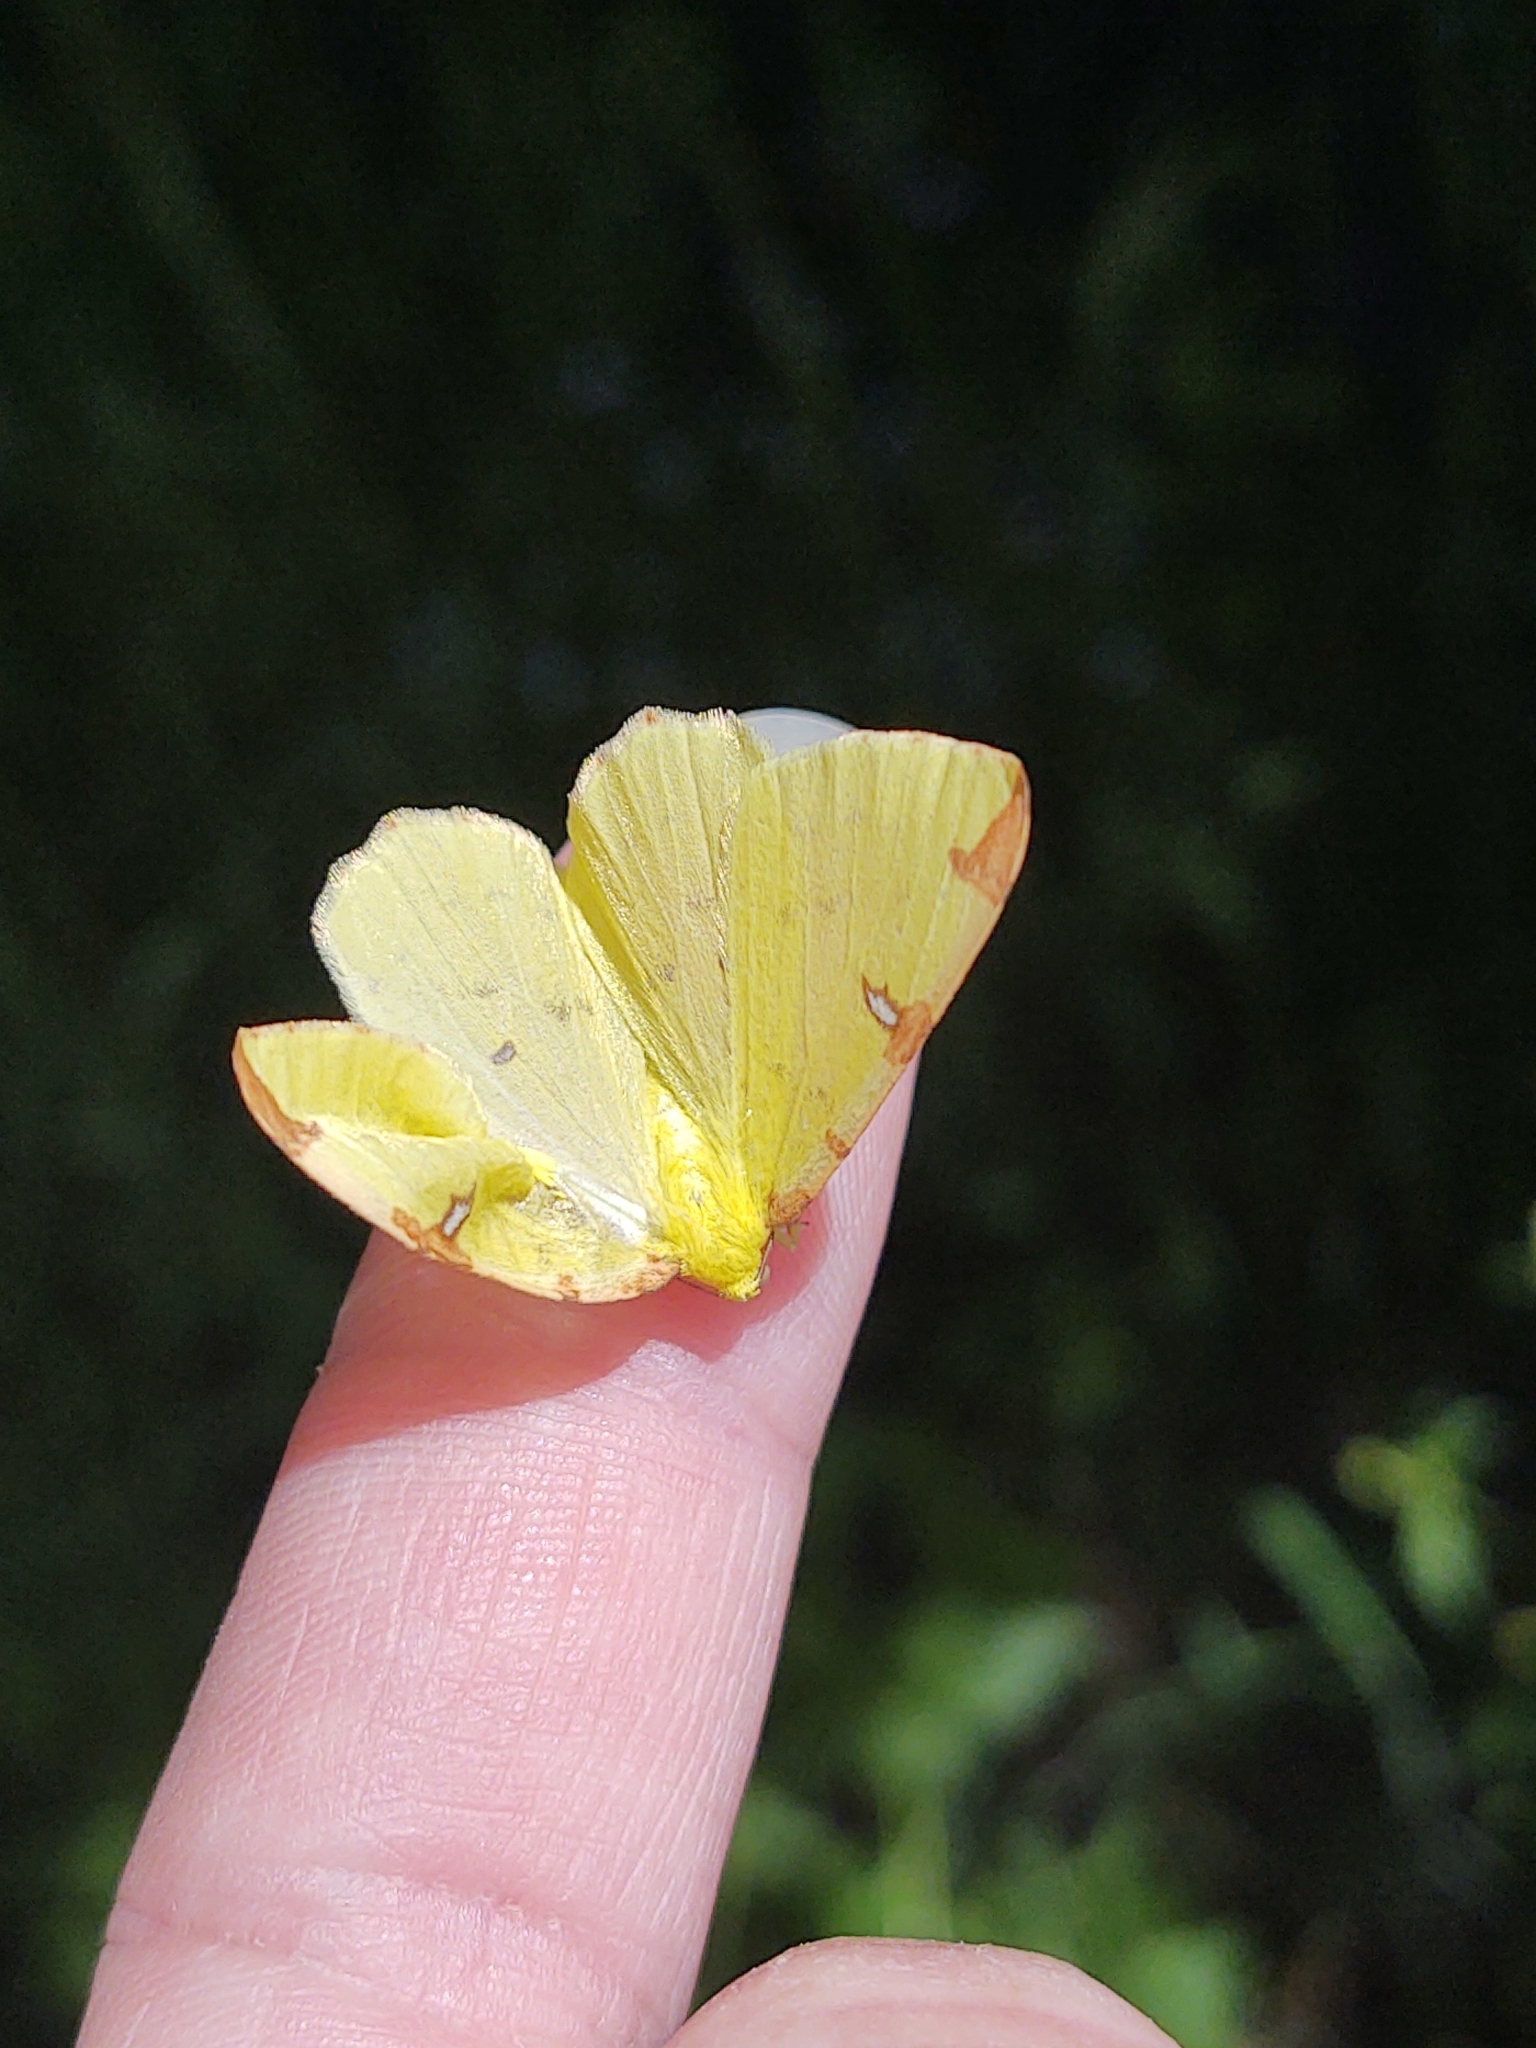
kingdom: Animalia
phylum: Arthropoda
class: Insecta
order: Lepidoptera
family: Geometridae
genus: Opisthograptis
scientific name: Opisthograptis luteolata
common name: Brimstone moth
